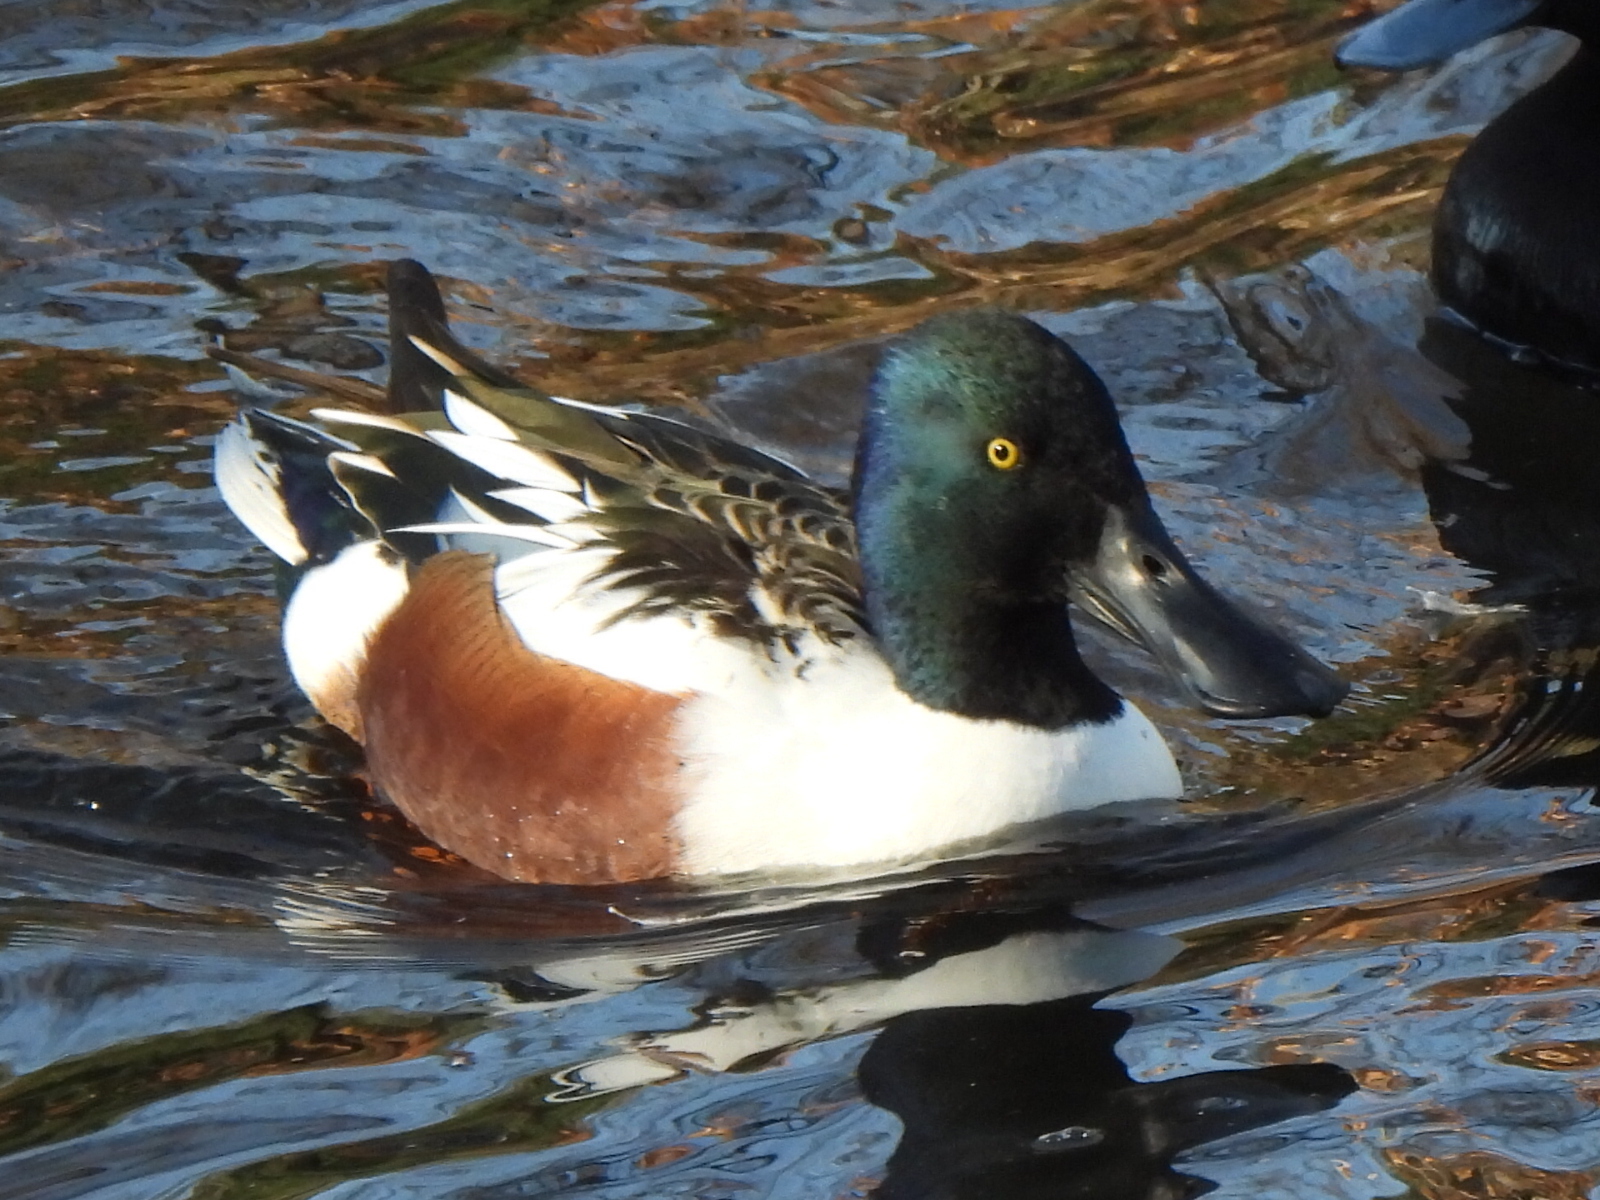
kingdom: Animalia
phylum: Chordata
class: Aves
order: Anseriformes
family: Anatidae
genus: Spatula
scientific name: Spatula clypeata
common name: Northern shoveler
